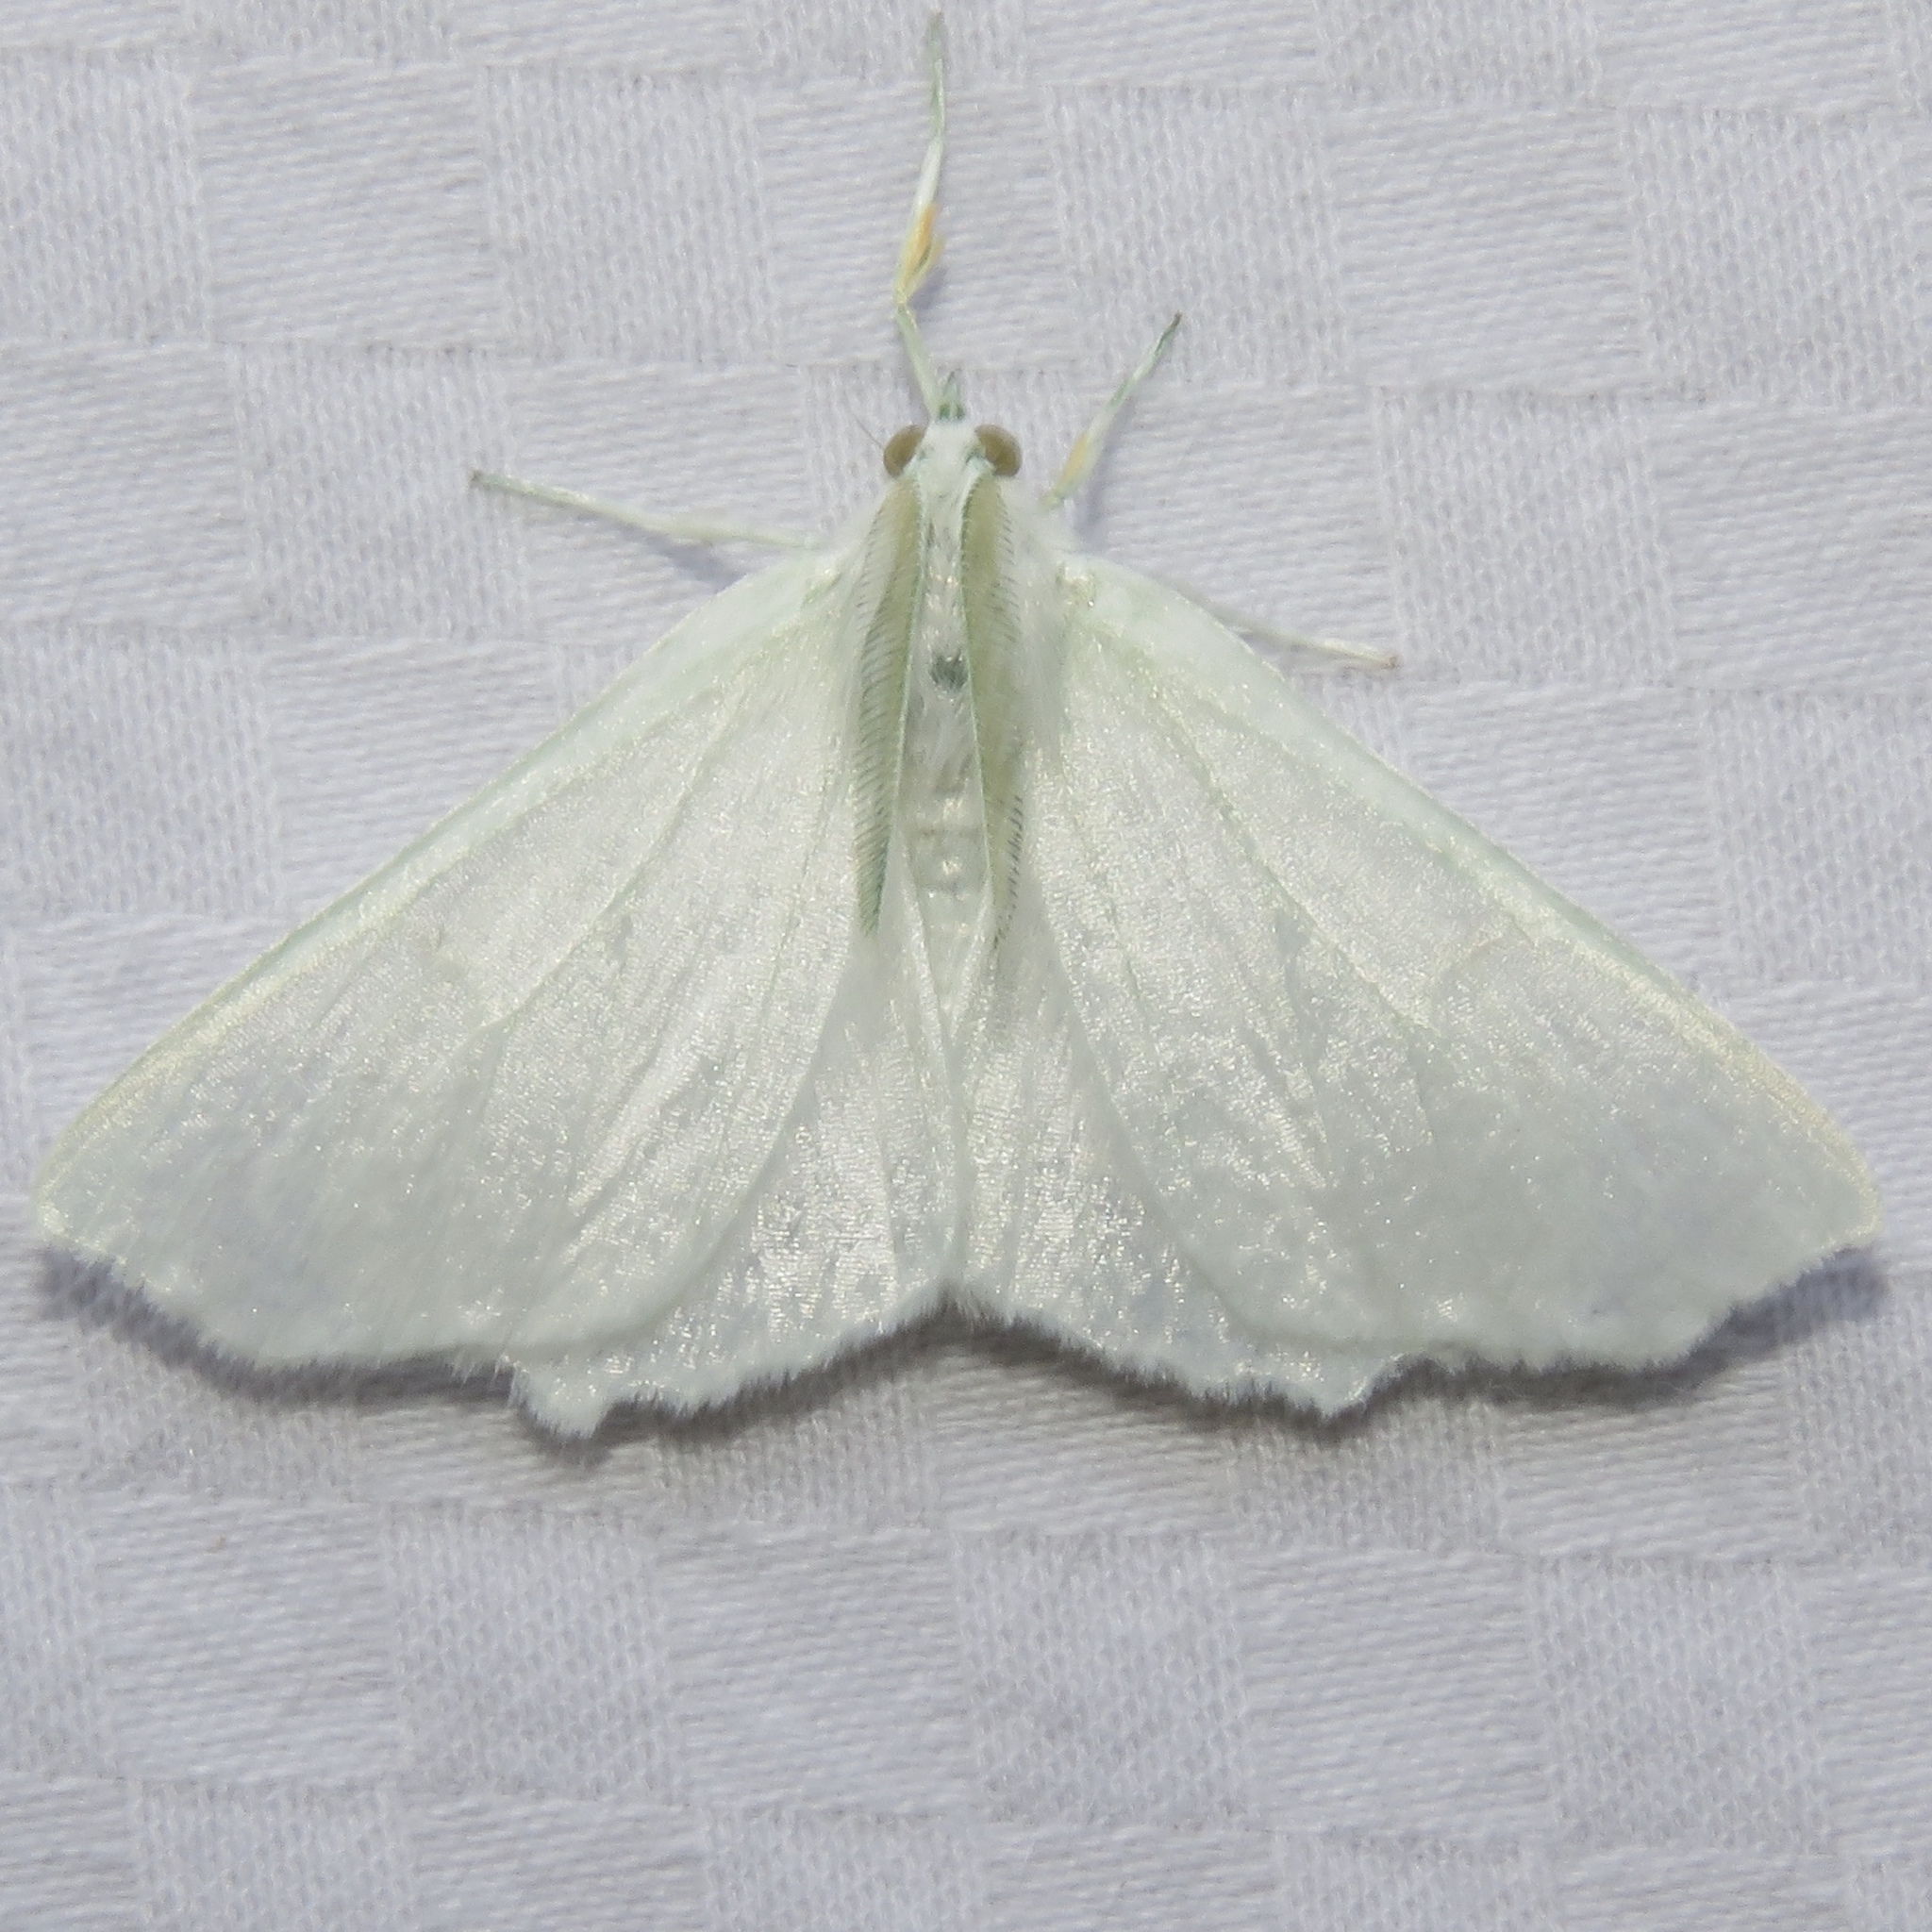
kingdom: Animalia
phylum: Arthropoda
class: Insecta
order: Lepidoptera
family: Geometridae
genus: Ennomos
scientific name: Ennomos subsignaria
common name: Elm spanworm
